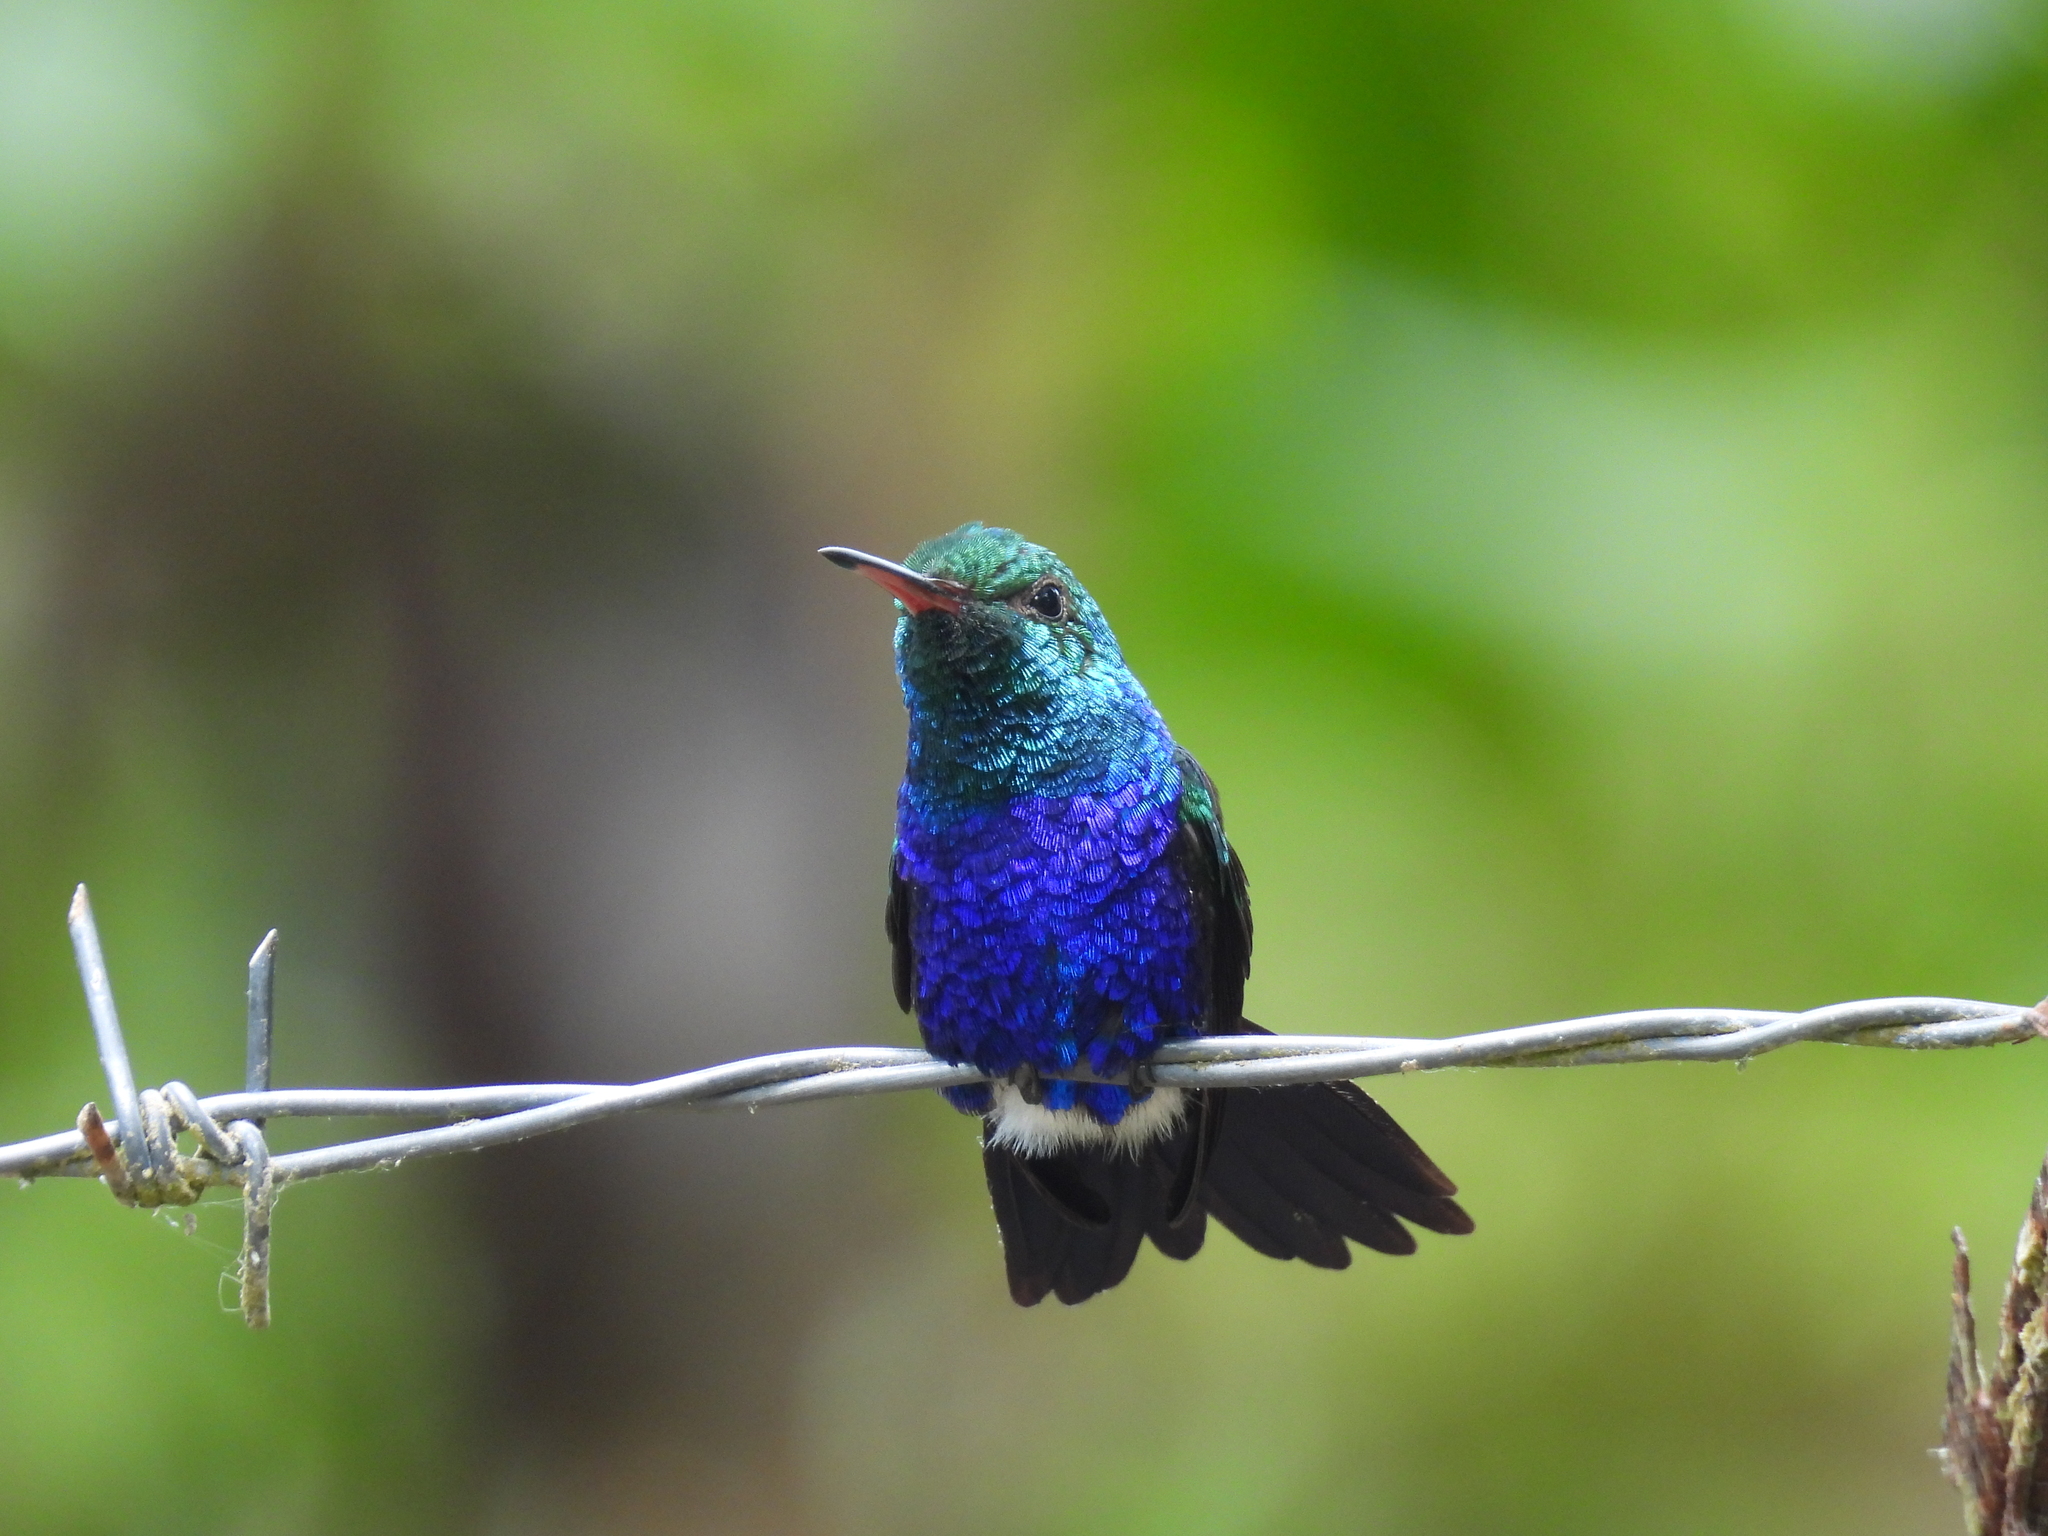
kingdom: Animalia
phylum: Chordata
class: Aves
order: Apodiformes
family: Trochilidae
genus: Chlorestes
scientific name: Chlorestes julie
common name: Violet-bellied hummingbird
